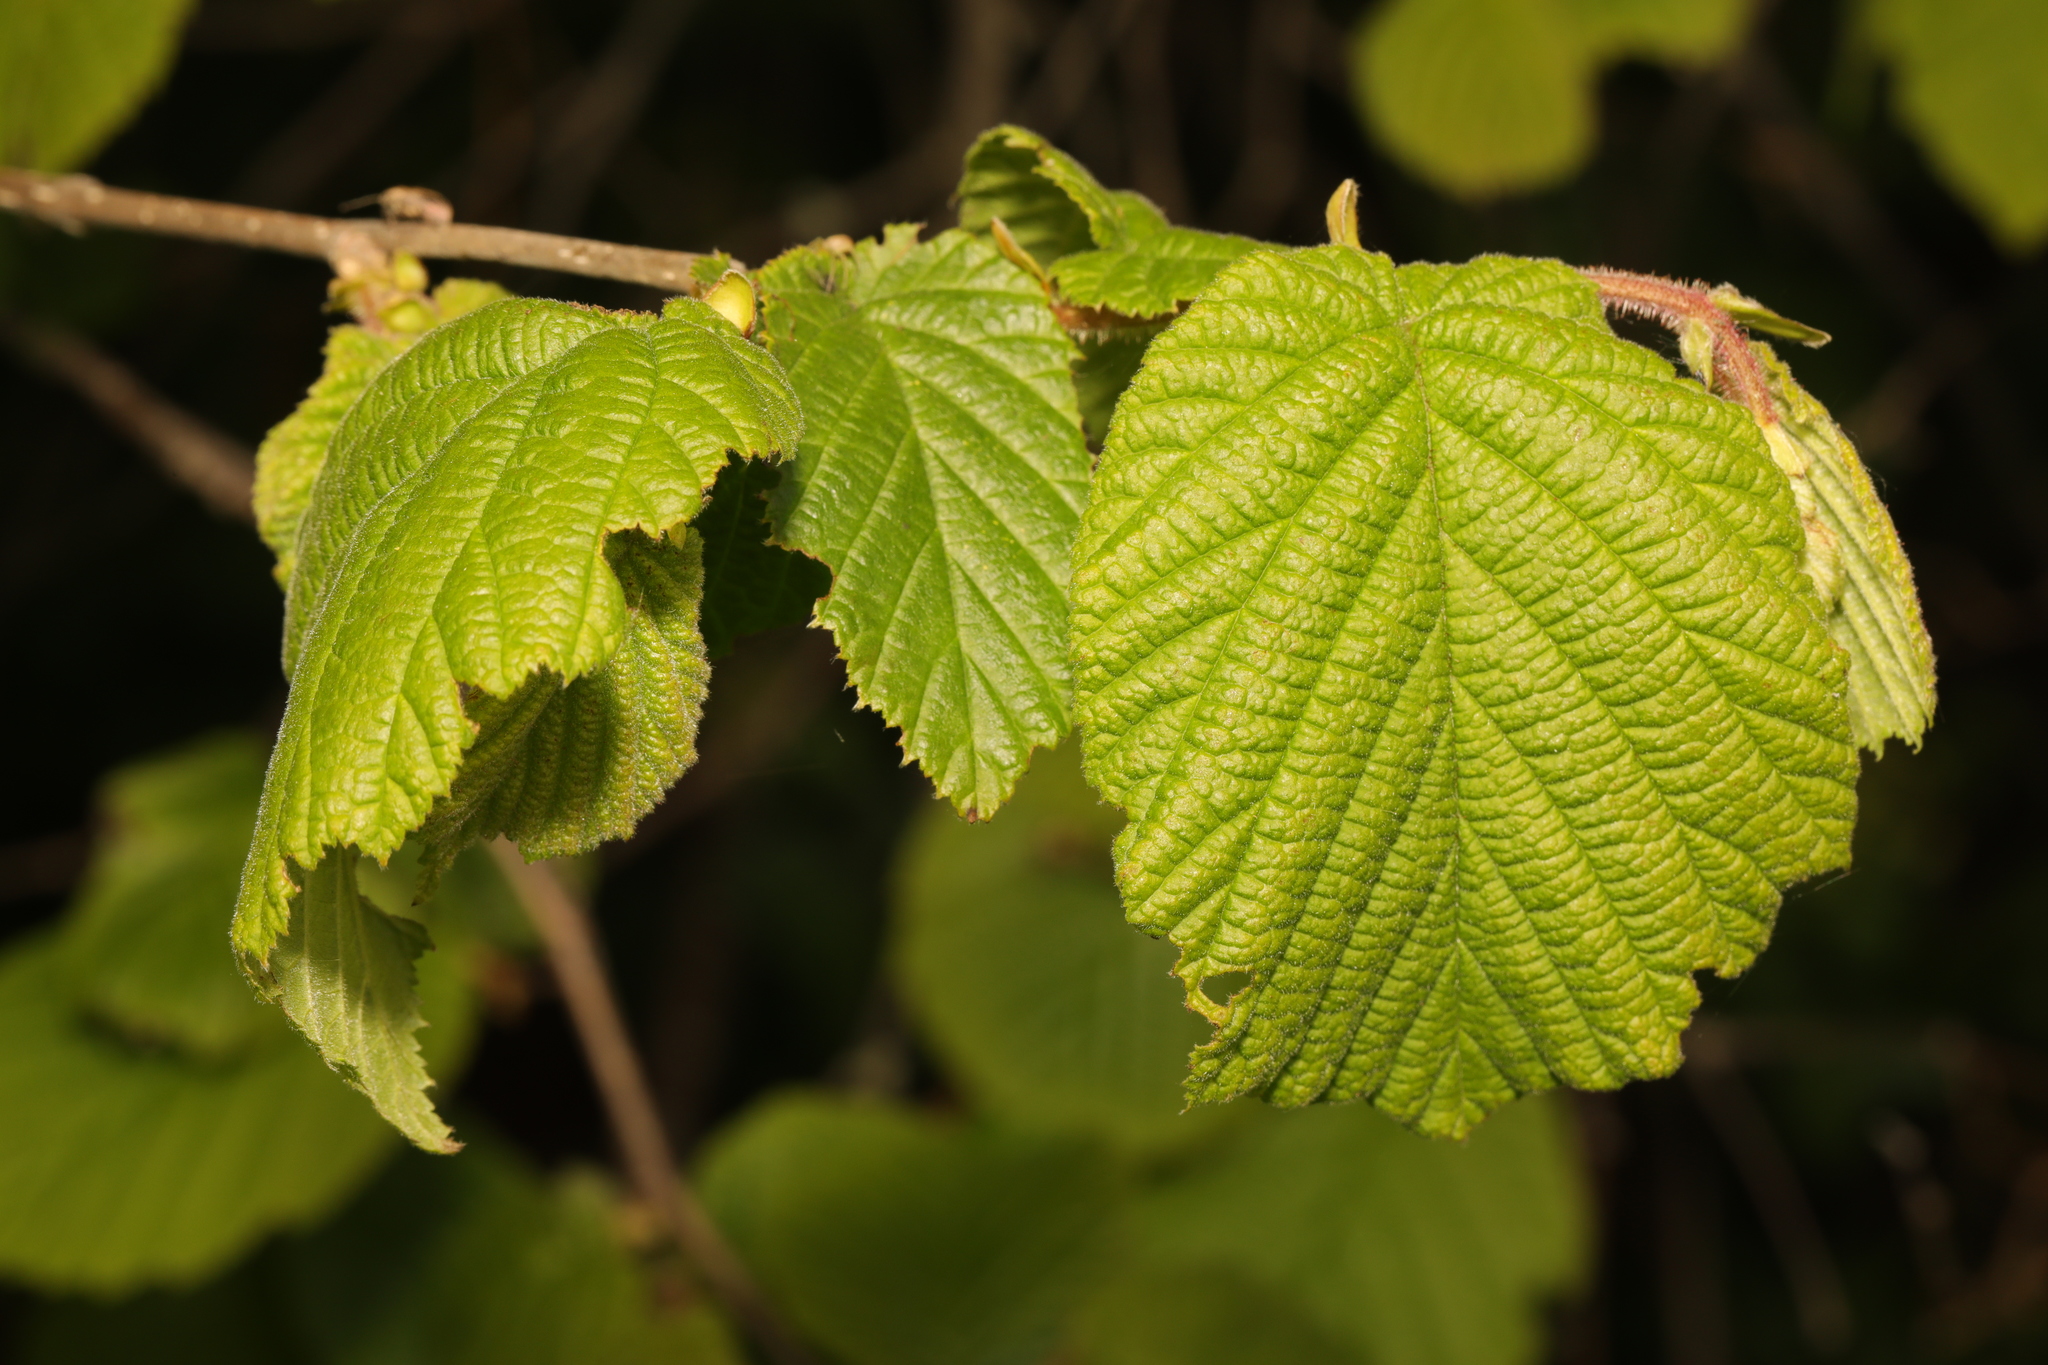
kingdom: Plantae
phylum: Tracheophyta
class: Magnoliopsida
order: Fagales
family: Betulaceae
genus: Corylus
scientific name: Corylus avellana
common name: European hazel
